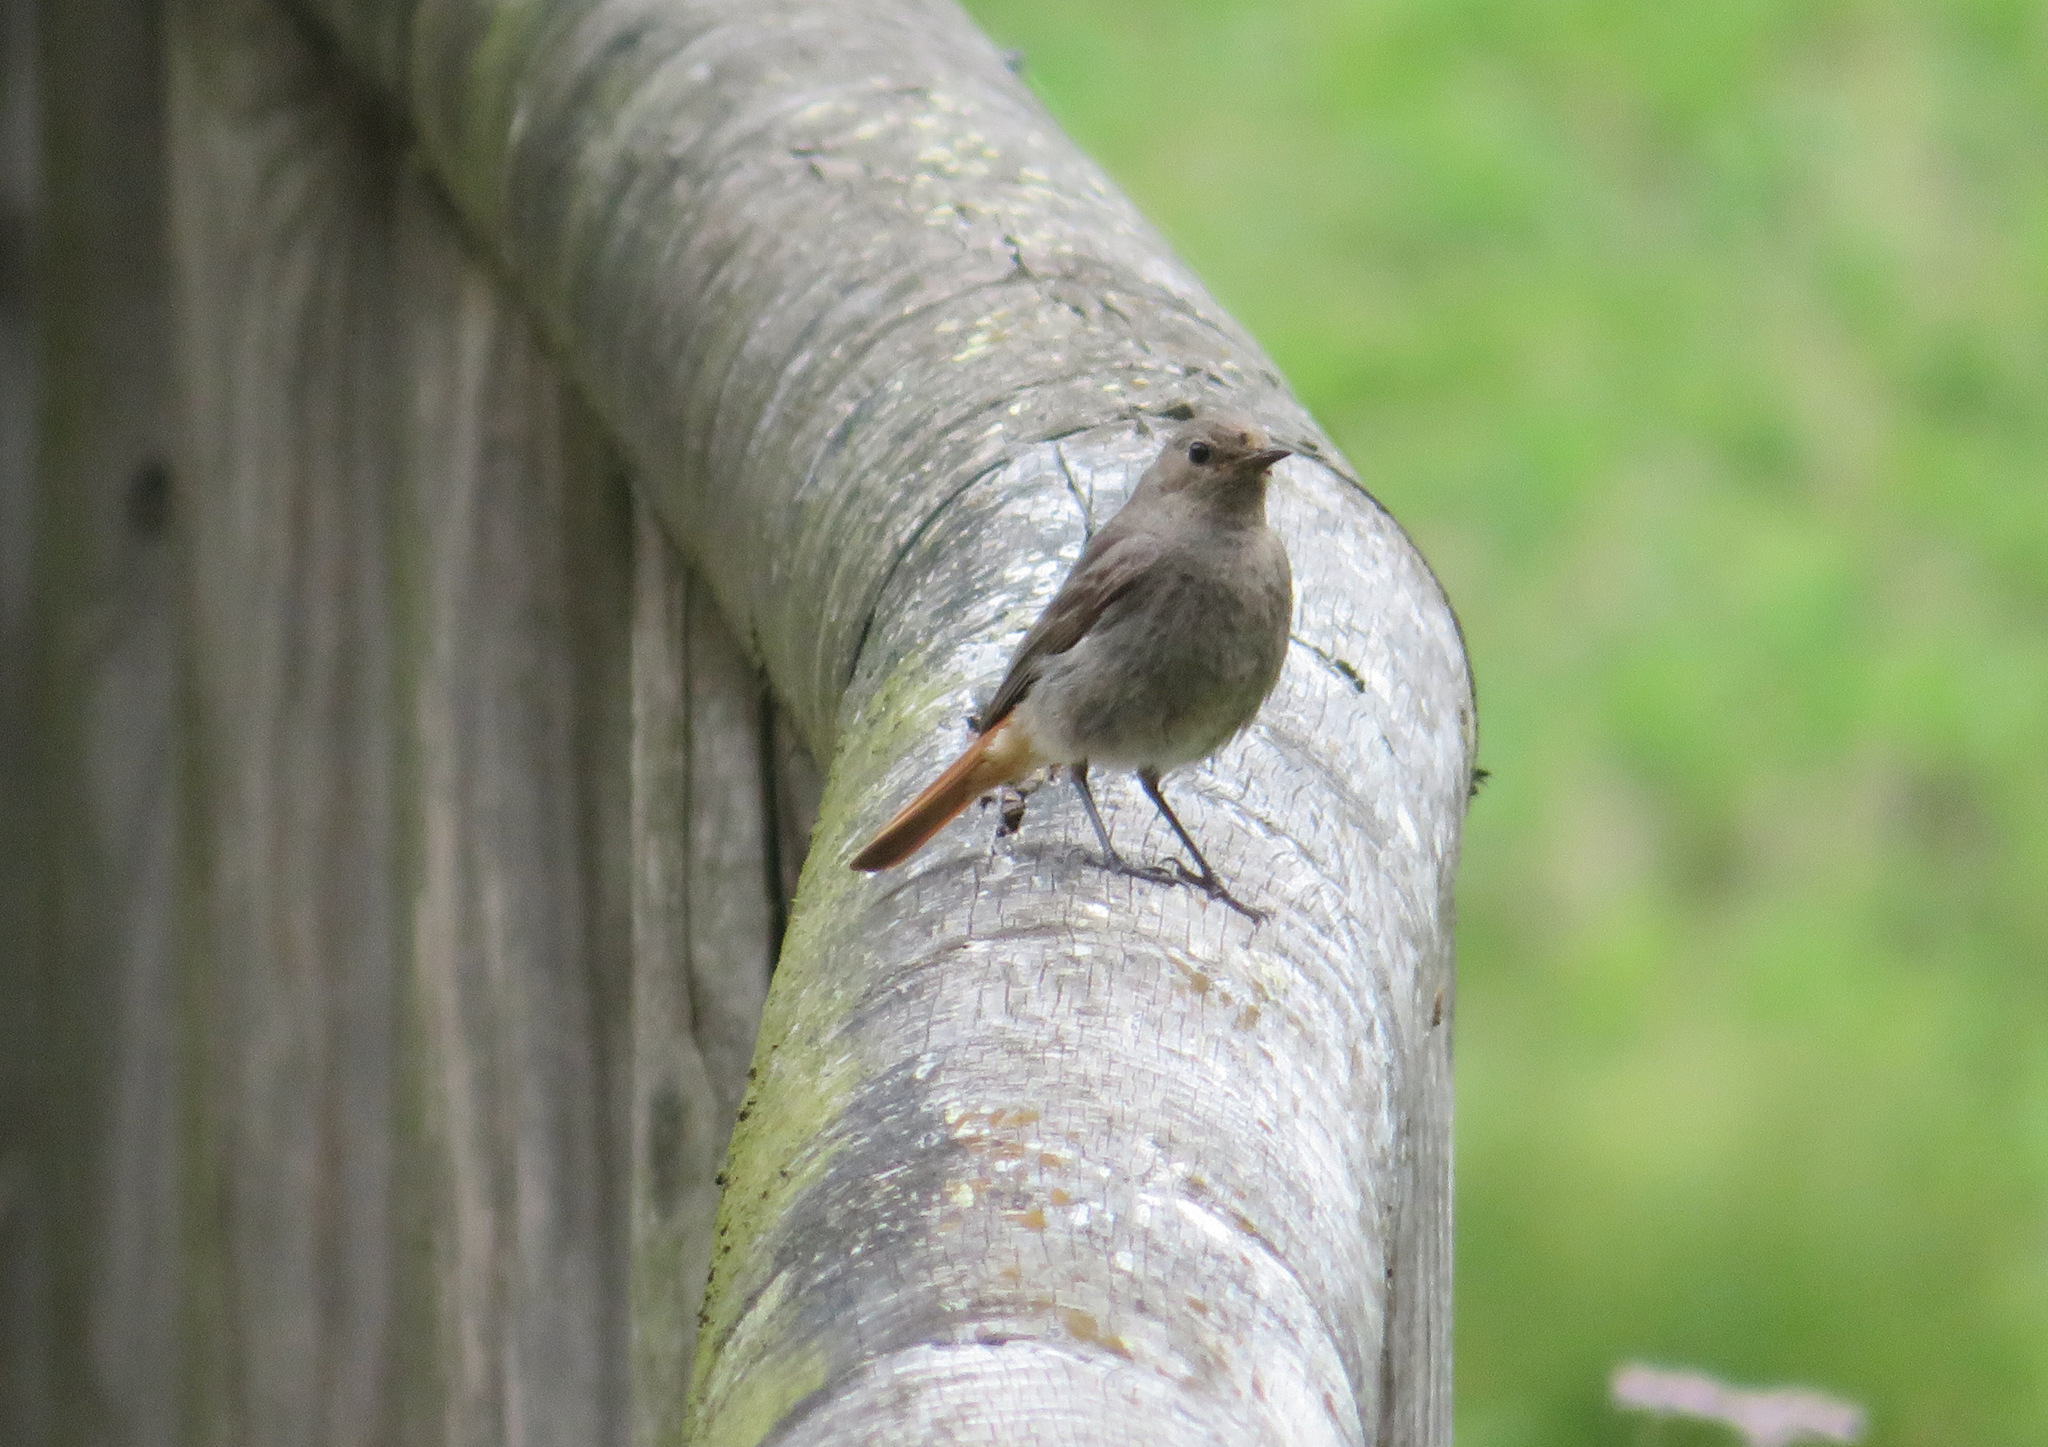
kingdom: Animalia
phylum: Chordata
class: Aves
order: Passeriformes
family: Muscicapidae
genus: Phoenicurus
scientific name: Phoenicurus ochruros
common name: Black redstart
